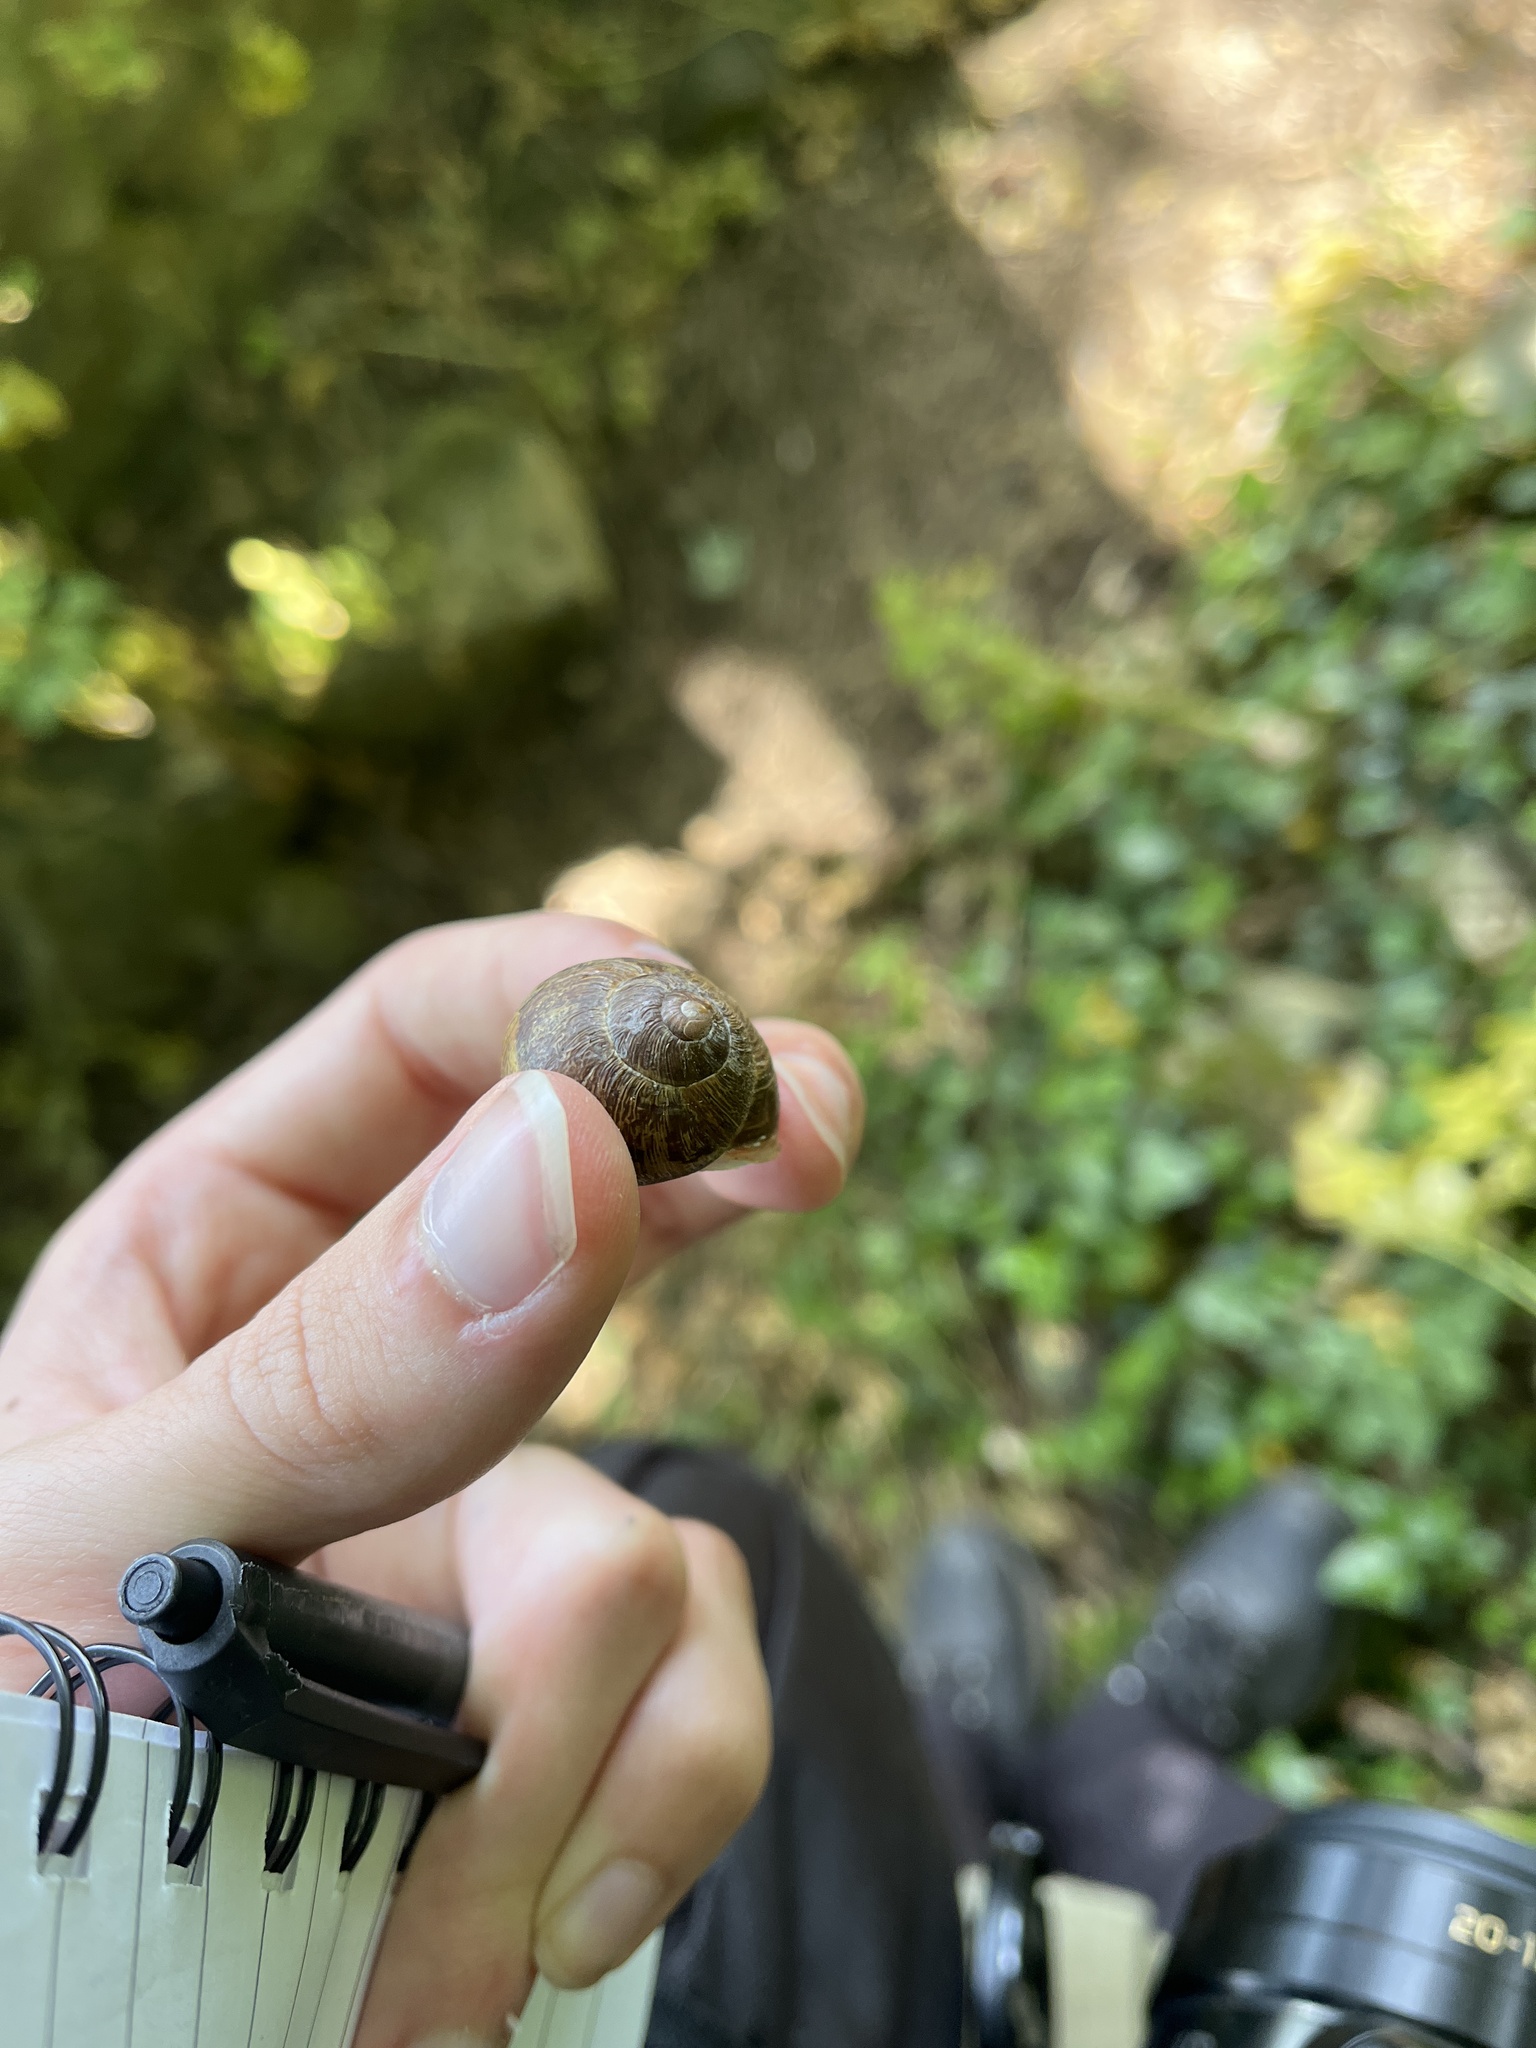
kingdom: Animalia
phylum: Mollusca
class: Gastropoda
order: Stylommatophora
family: Helicidae
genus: Cornu
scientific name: Cornu aspersum
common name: Brown garden snail
